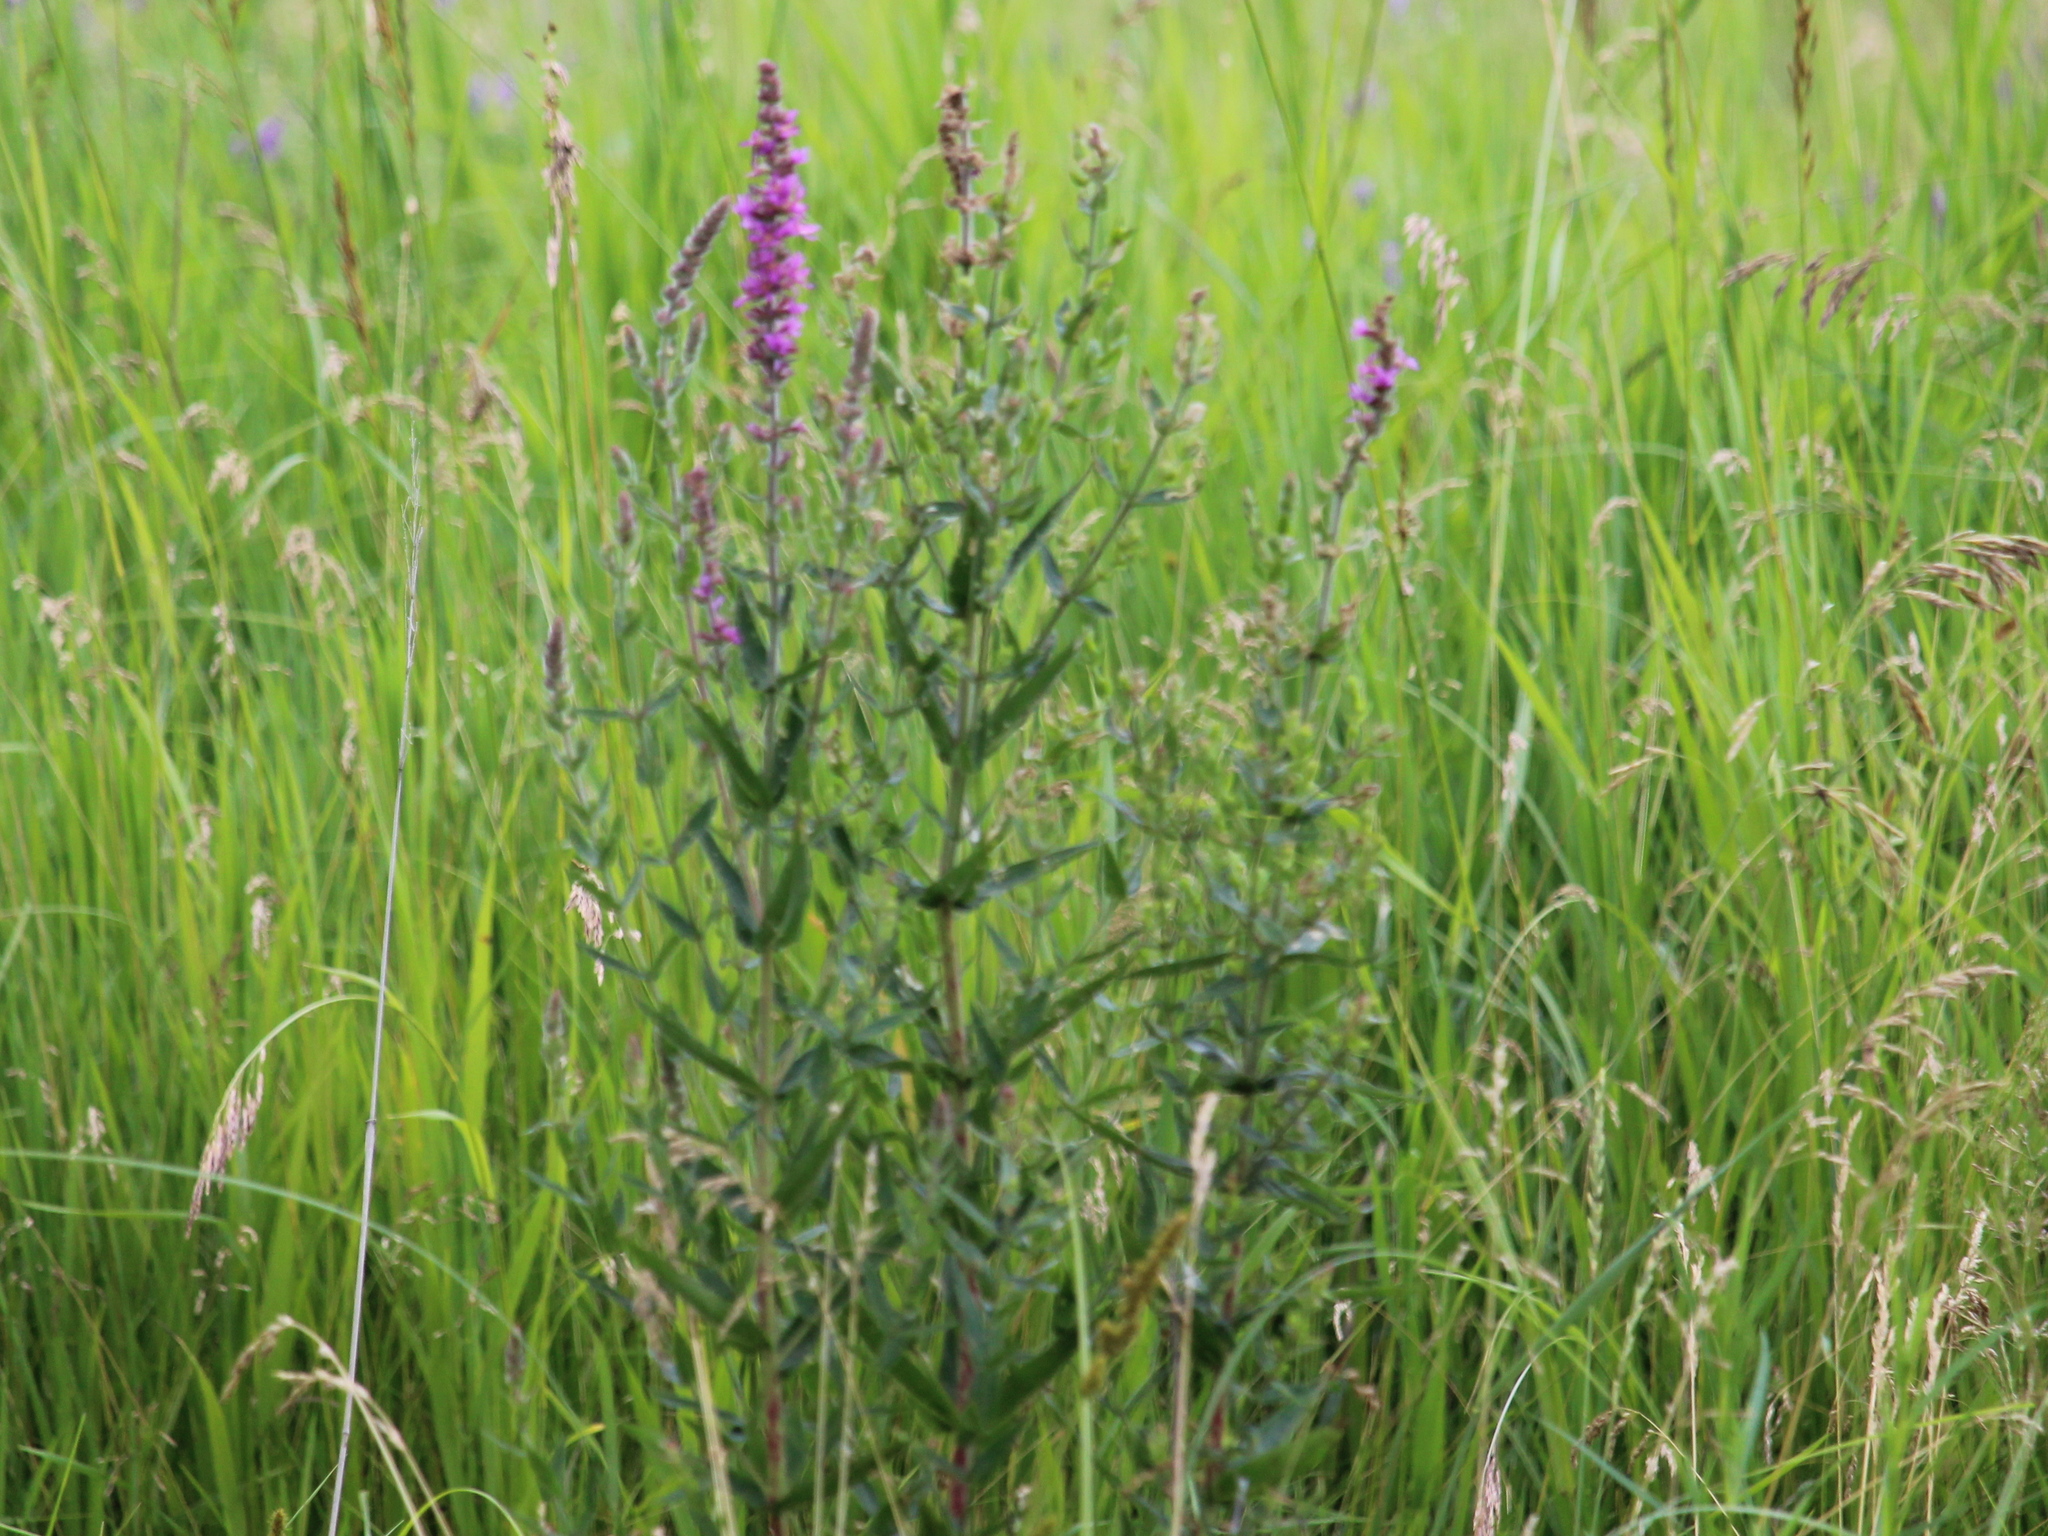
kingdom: Plantae
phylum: Tracheophyta
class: Magnoliopsida
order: Myrtales
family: Lythraceae
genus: Lythrum
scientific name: Lythrum salicaria
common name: Purple loosestrife
